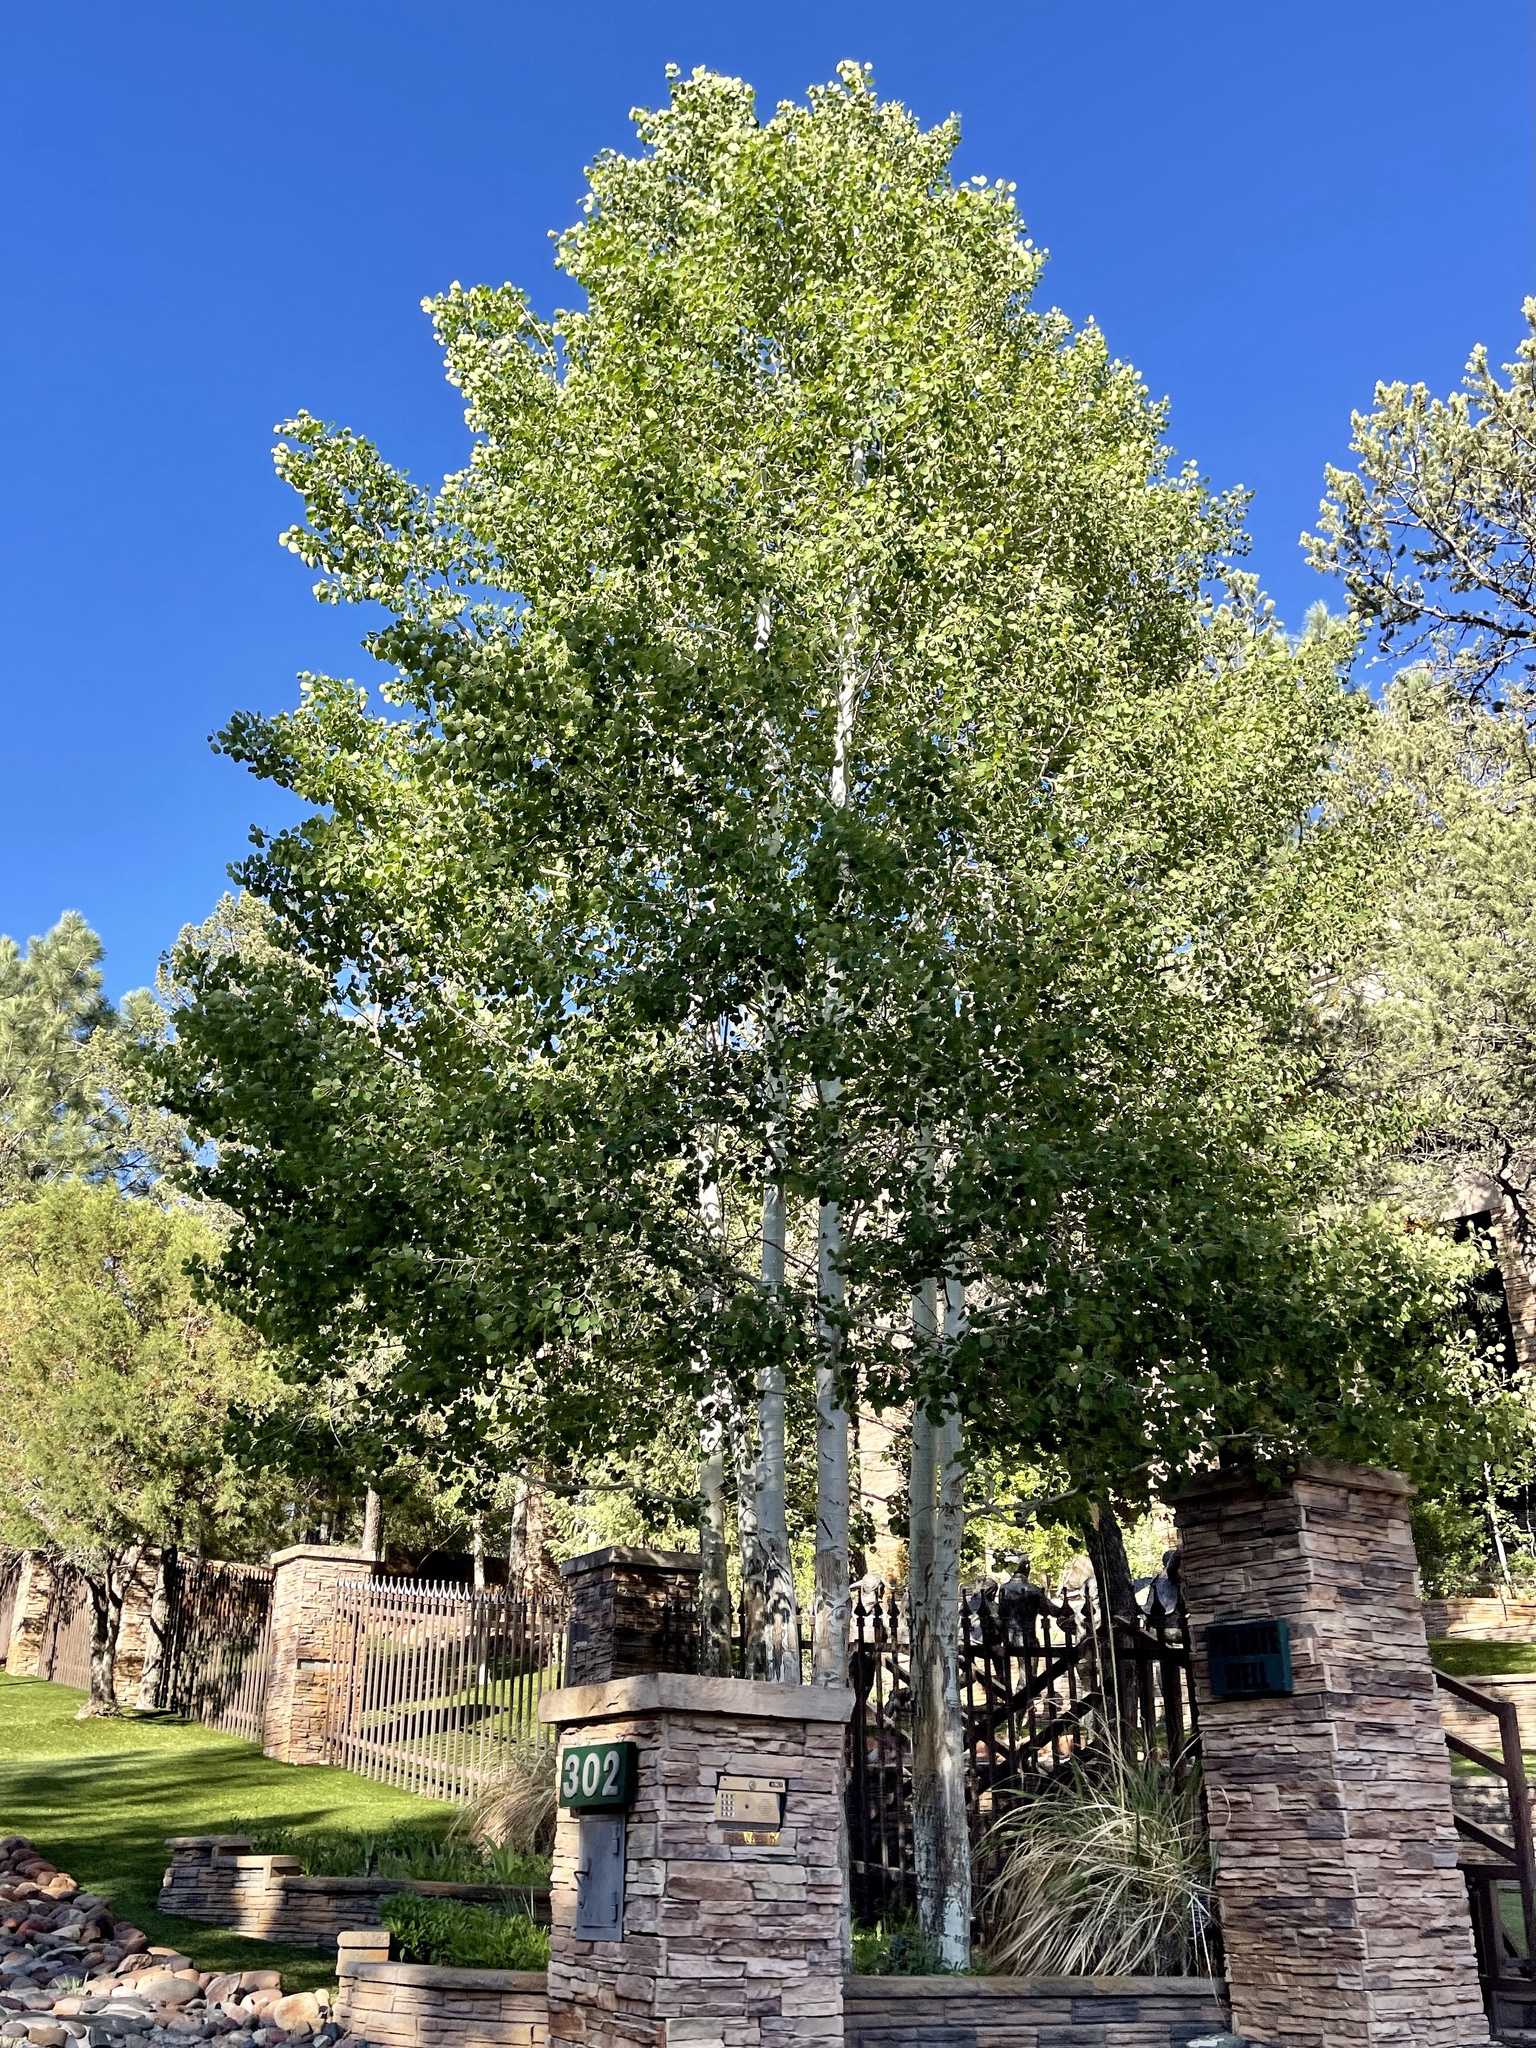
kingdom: Plantae
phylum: Tracheophyta
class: Magnoliopsida
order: Malpighiales
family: Salicaceae
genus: Populus
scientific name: Populus tremuloides
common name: Quaking aspen
